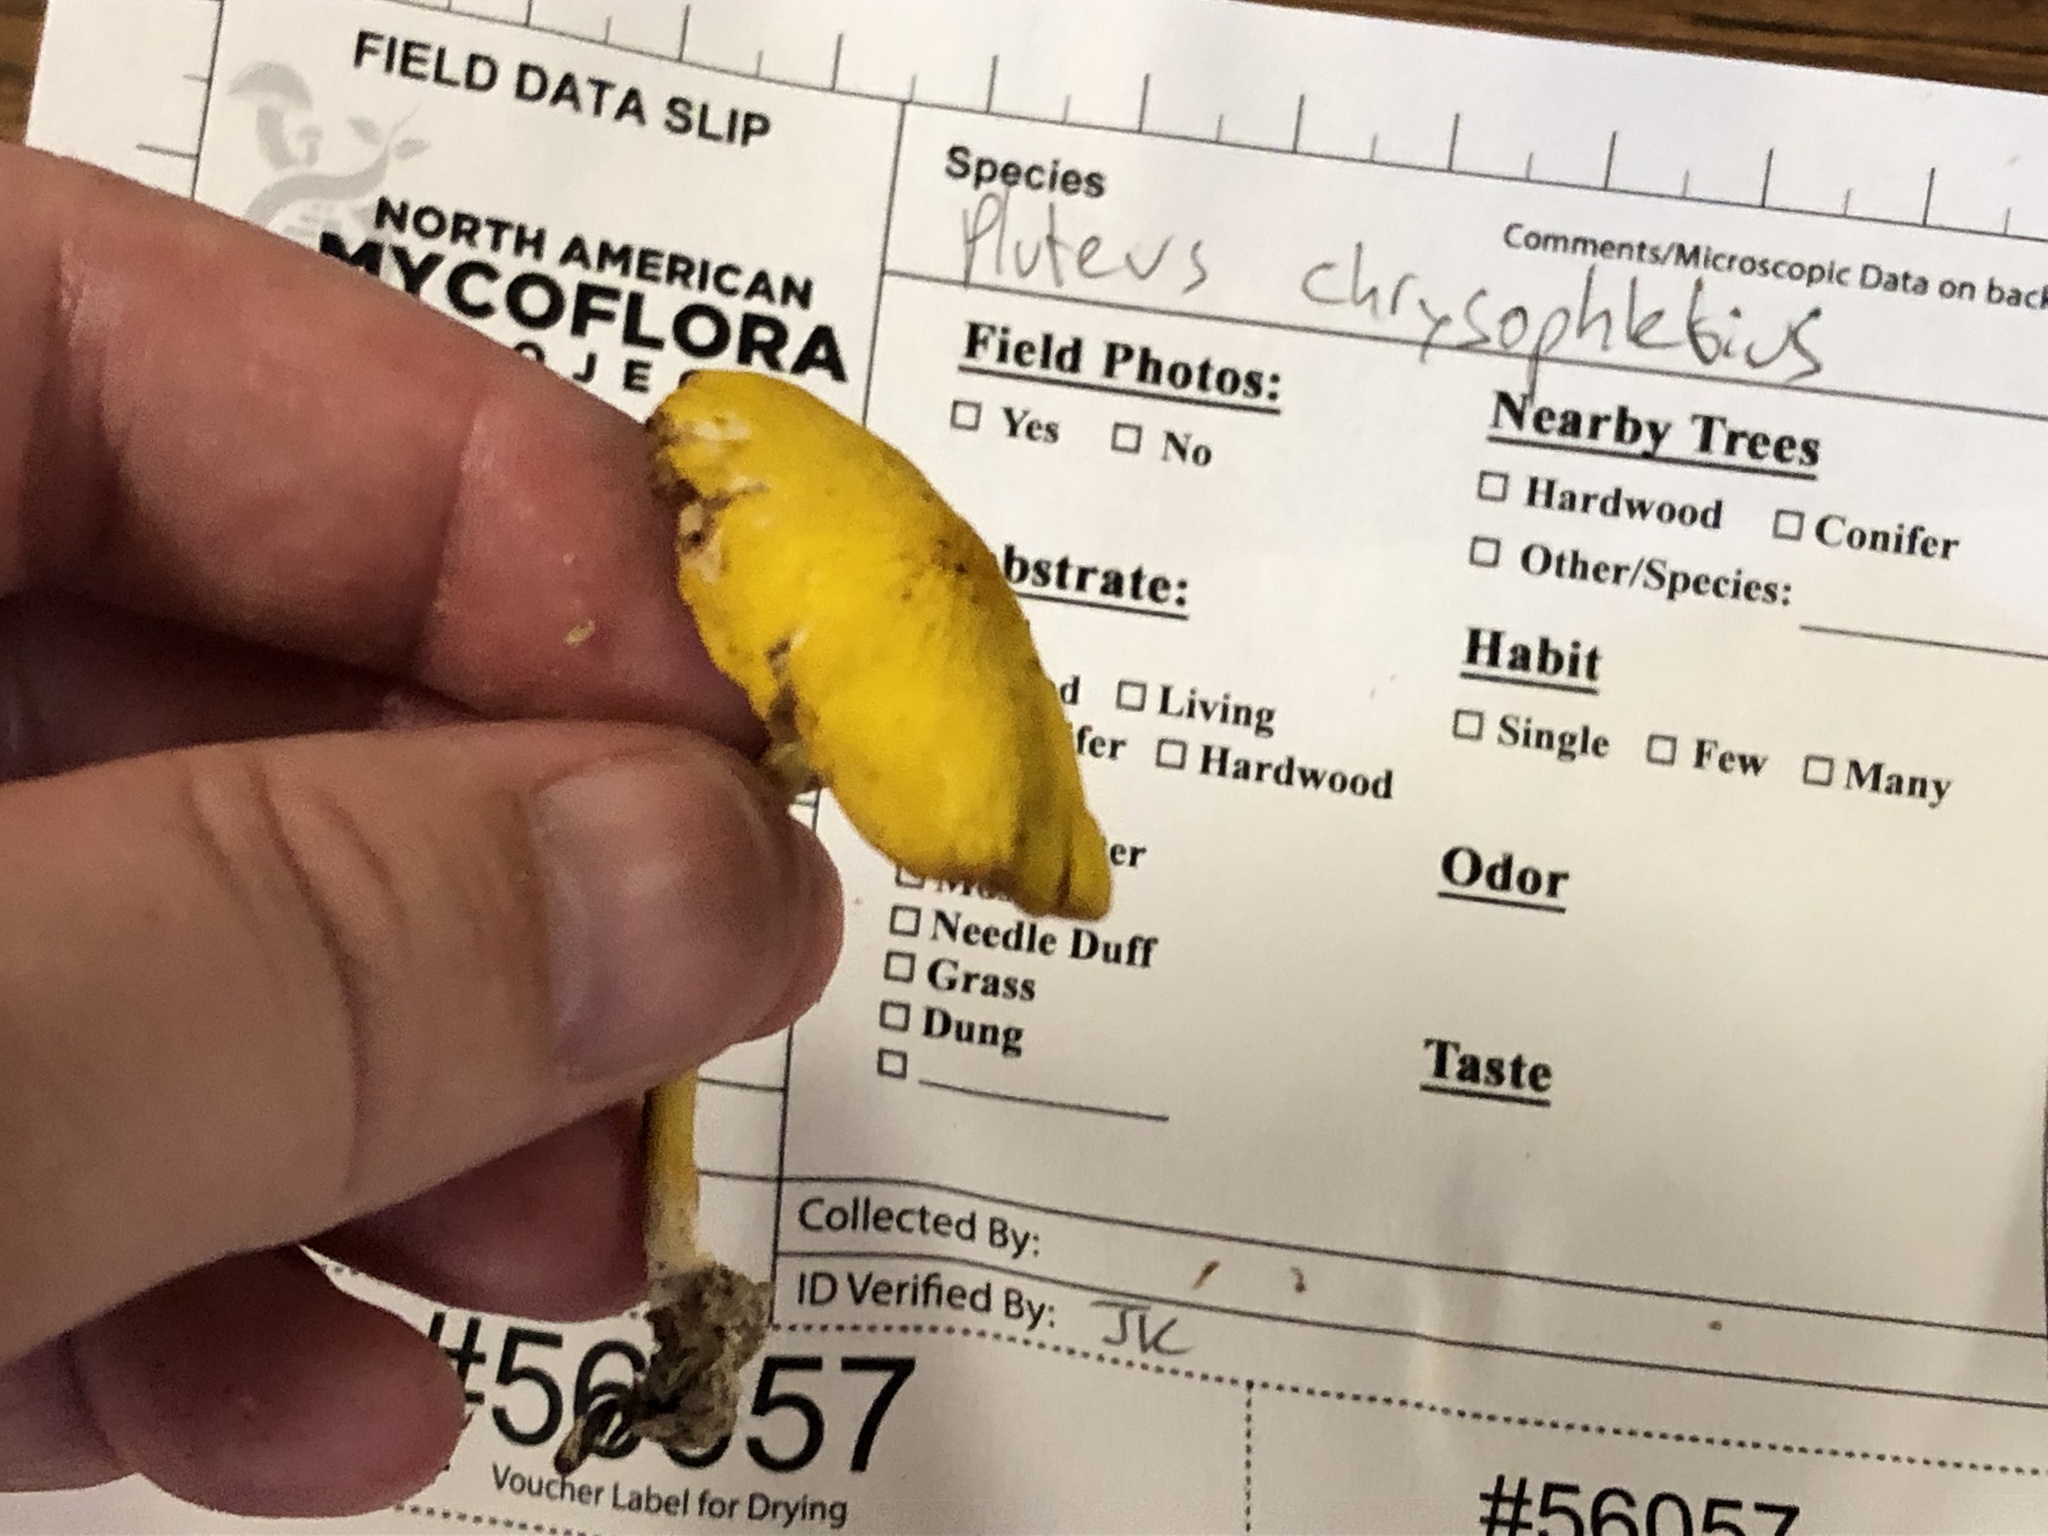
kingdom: Fungi
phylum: Basidiomycota
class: Agaricomycetes
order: Agaricales
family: Pluteaceae
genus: Pluteus
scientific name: Pluteus chrysophlebius
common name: Yellow deer mushroom
